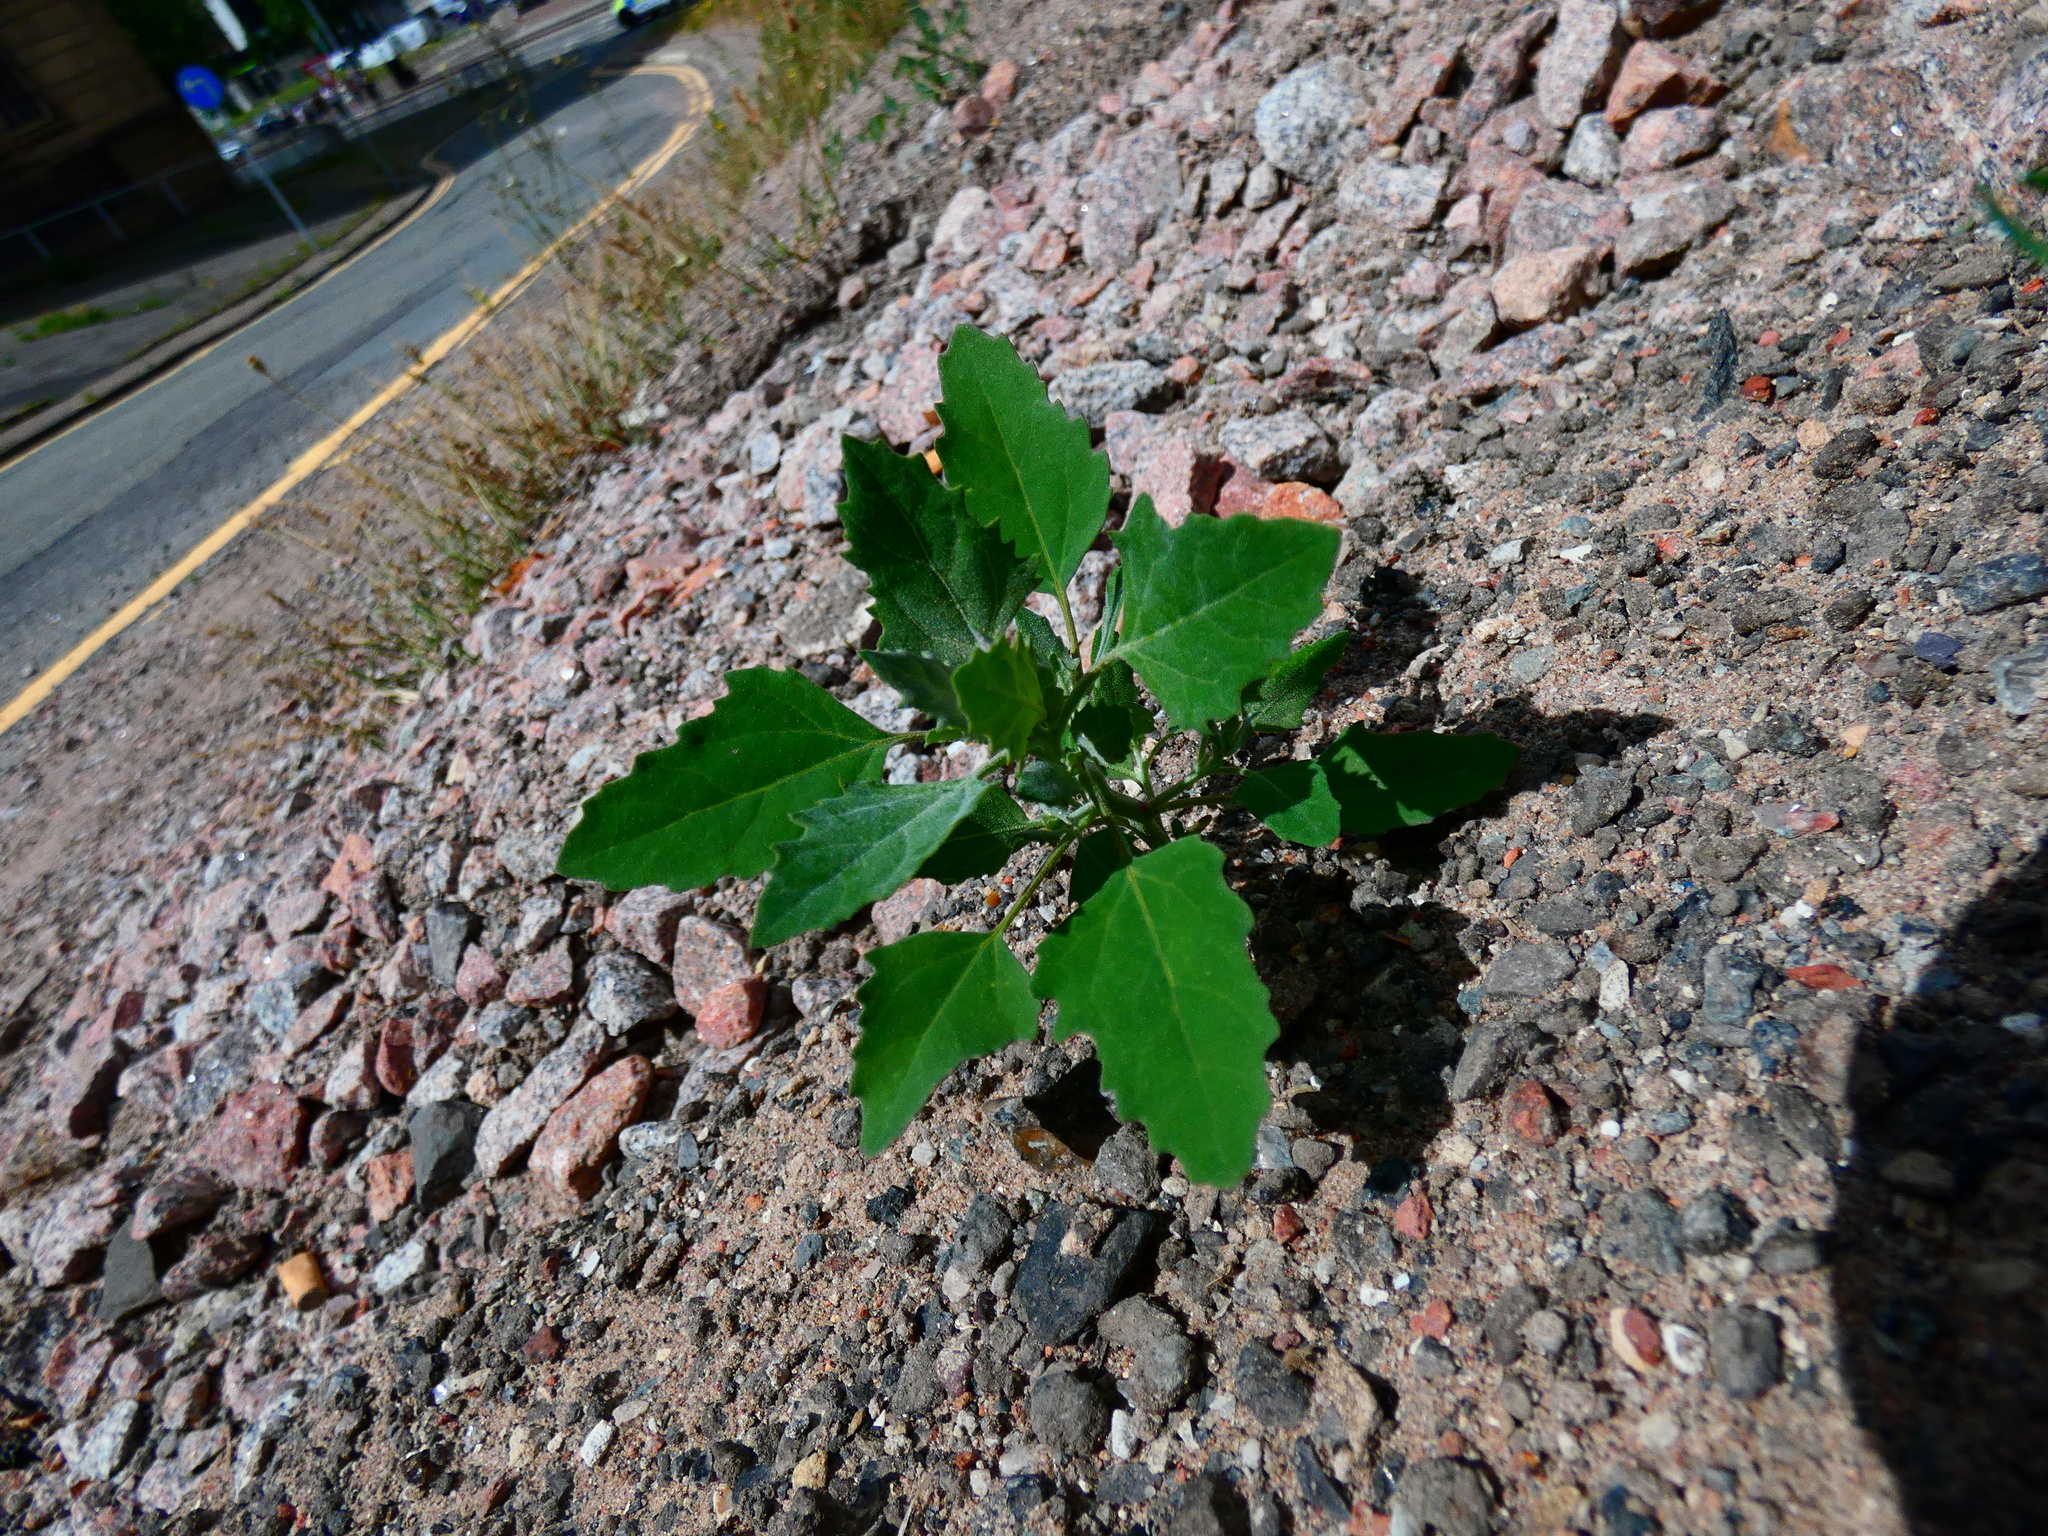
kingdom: Plantae
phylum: Tracheophyta
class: Magnoliopsida
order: Caryophyllales
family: Amaranthaceae
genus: Chenopodium
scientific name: Chenopodium album
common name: Fat-hen
